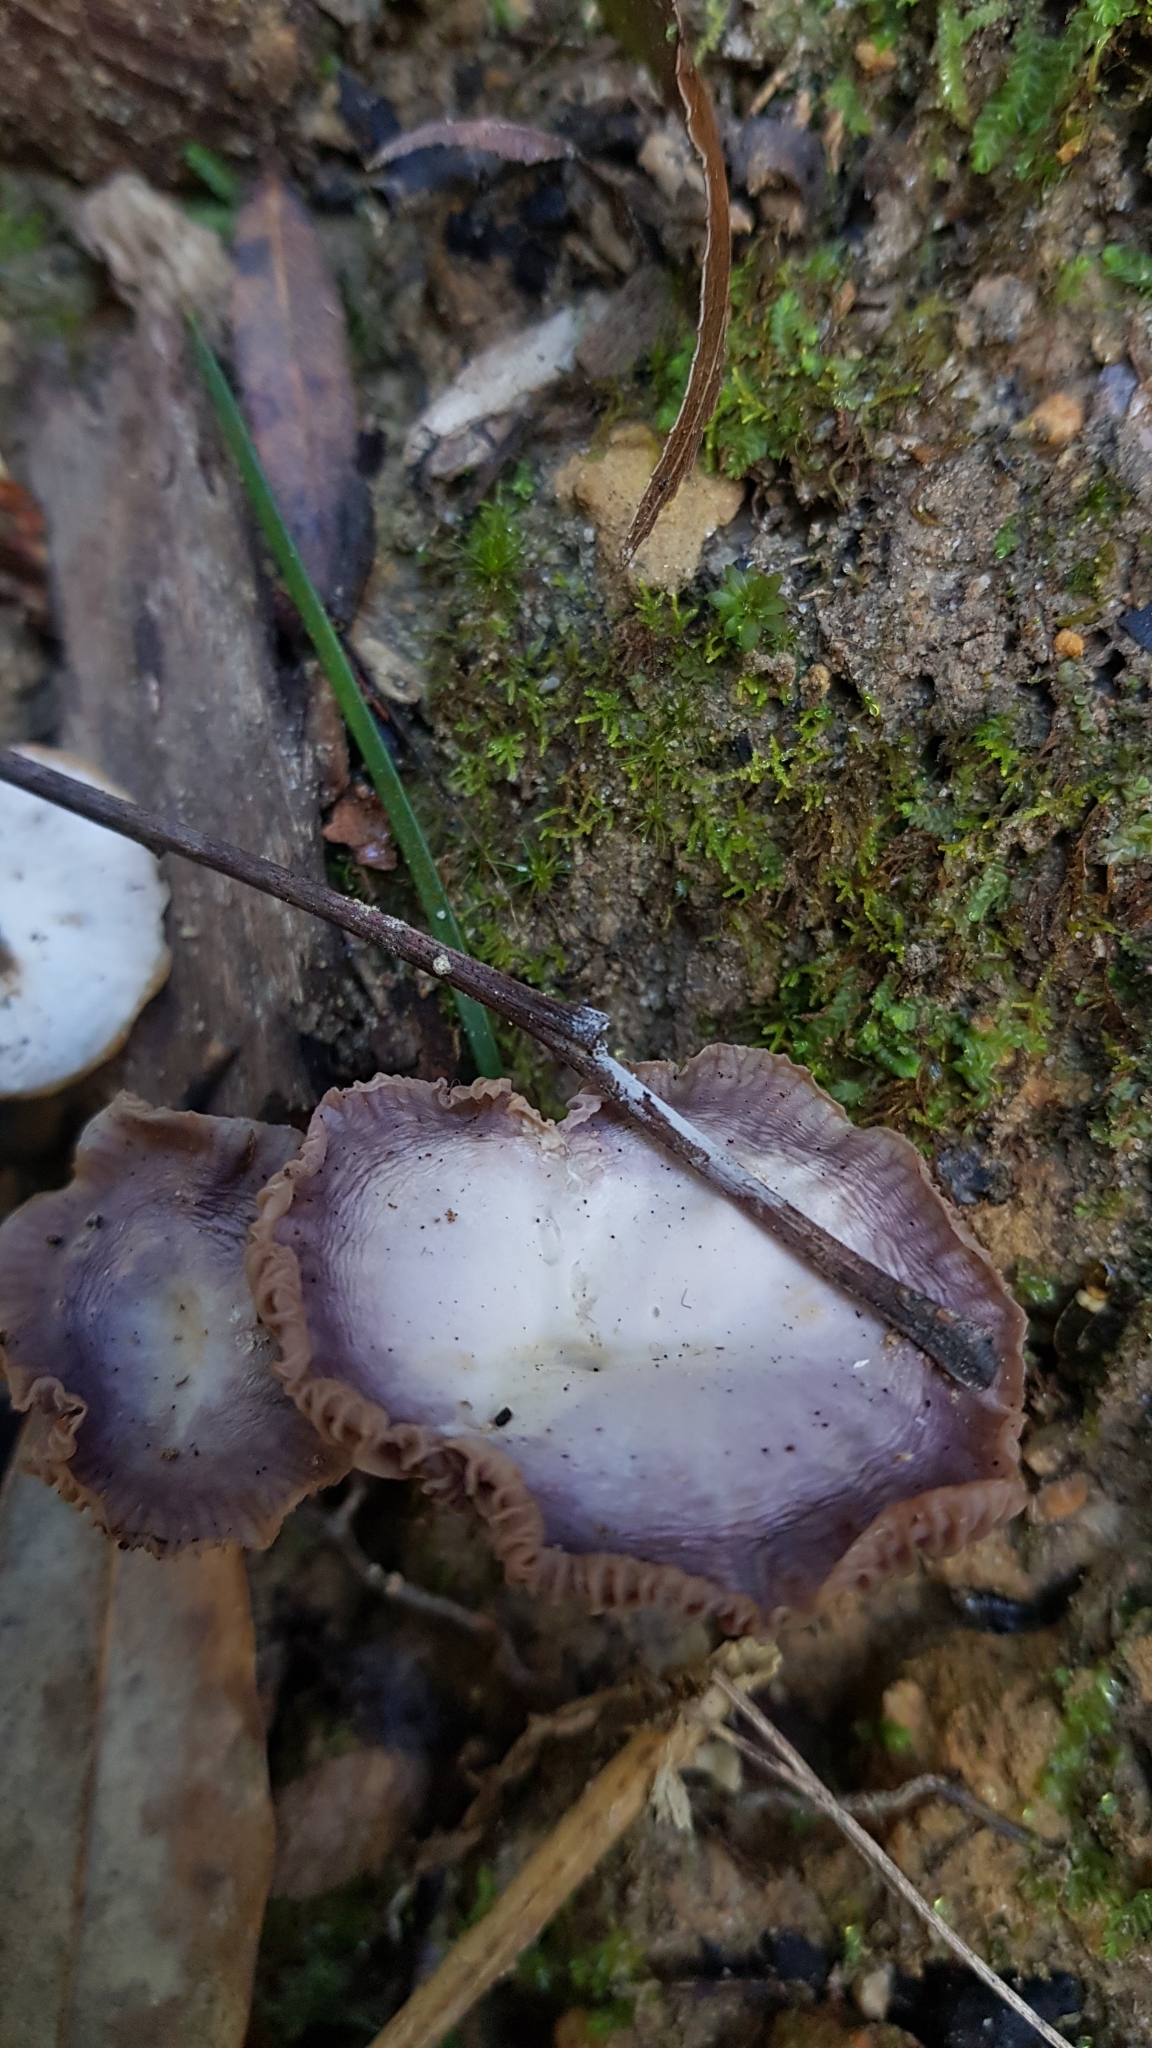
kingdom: Fungi
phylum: Basidiomycota
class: Agaricomycetes
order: Agaricales
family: Hygrophoraceae
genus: Hygrocybe
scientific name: Hygrocybe reesiae
